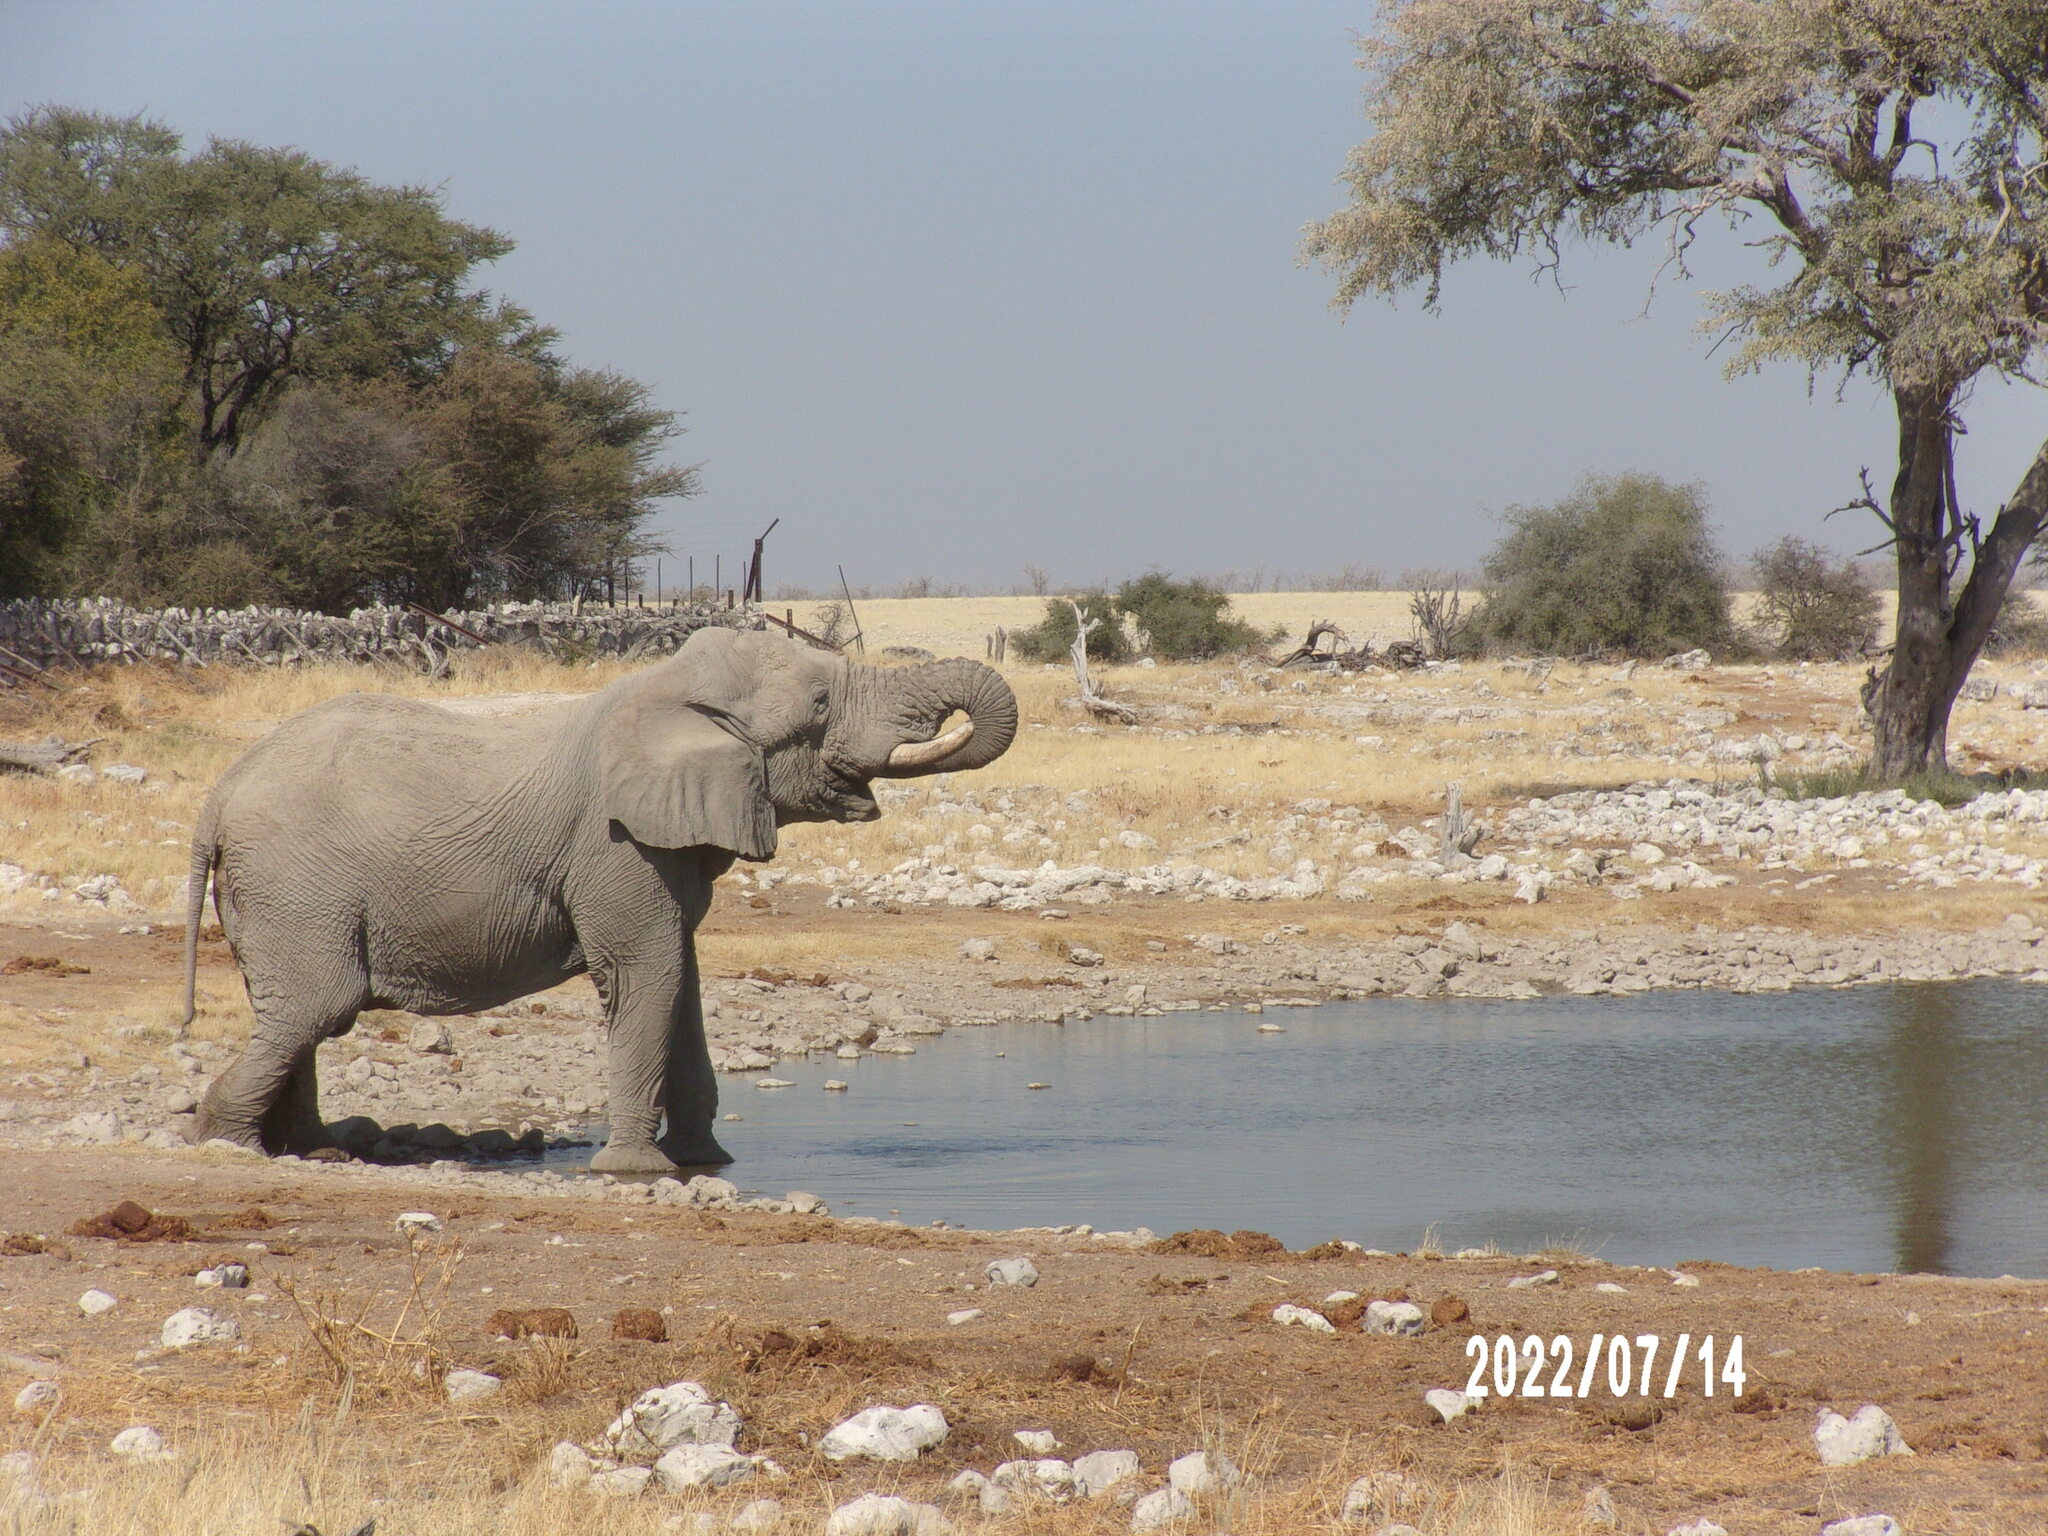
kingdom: Animalia
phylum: Chordata
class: Mammalia
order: Proboscidea
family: Elephantidae
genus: Loxodonta
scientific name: Loxodonta africana
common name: African elephant
